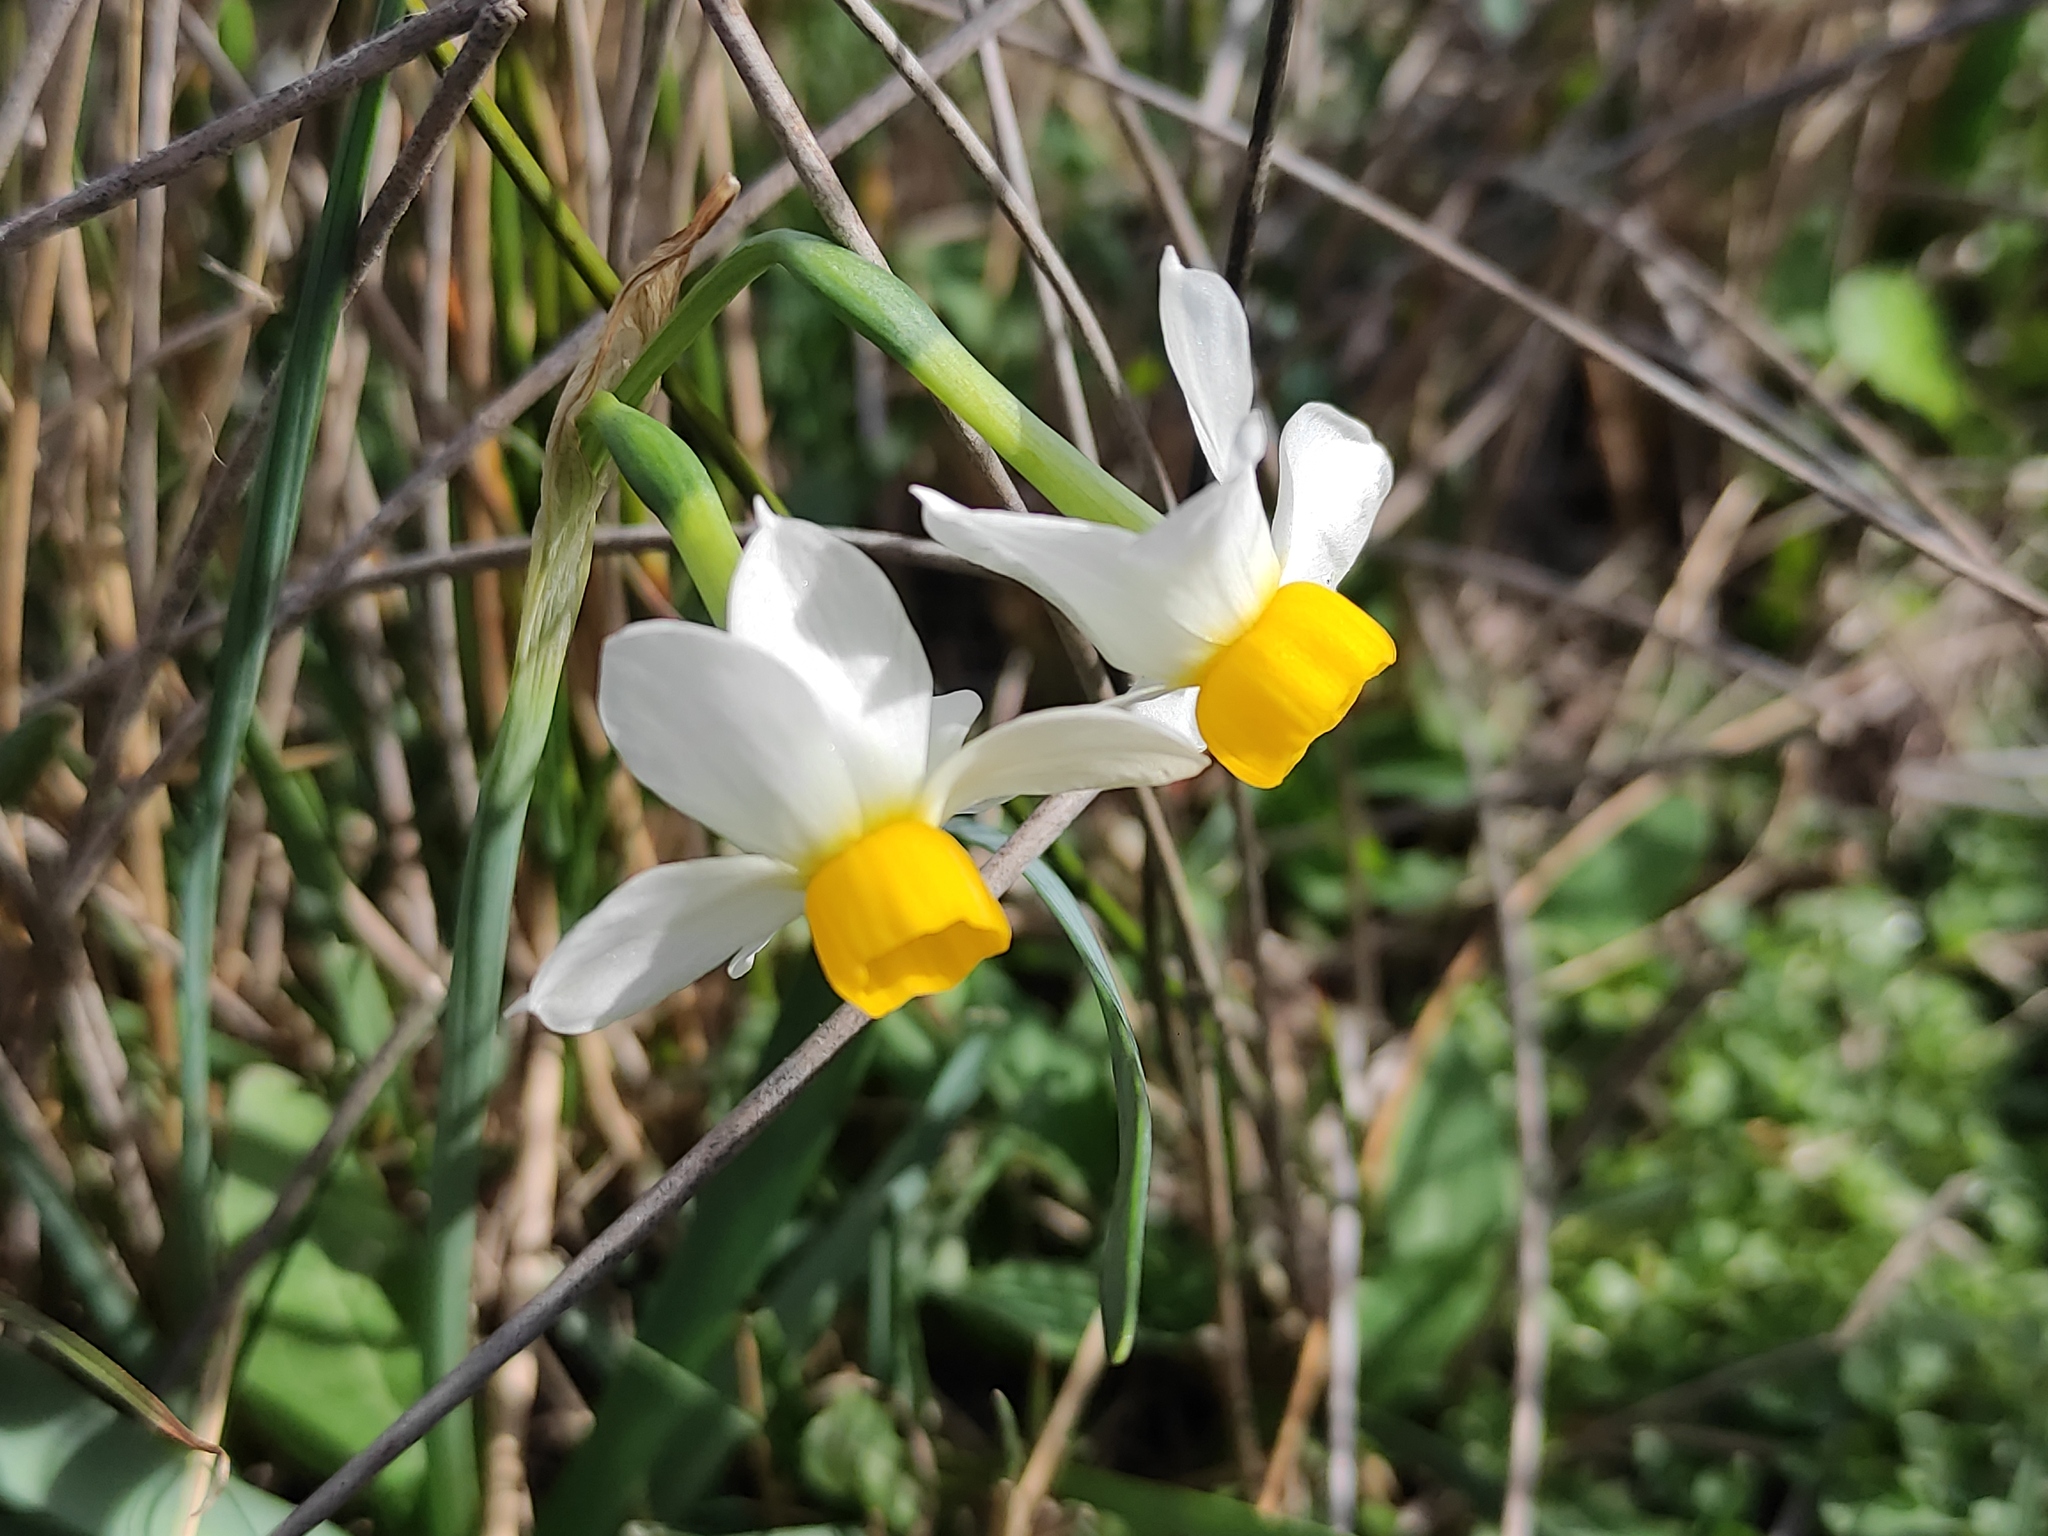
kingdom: Plantae
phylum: Tracheophyta
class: Liliopsida
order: Asparagales
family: Amaryllidaceae
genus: Narcissus
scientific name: Narcissus tazetta
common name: Bunch-flowered daffodil
